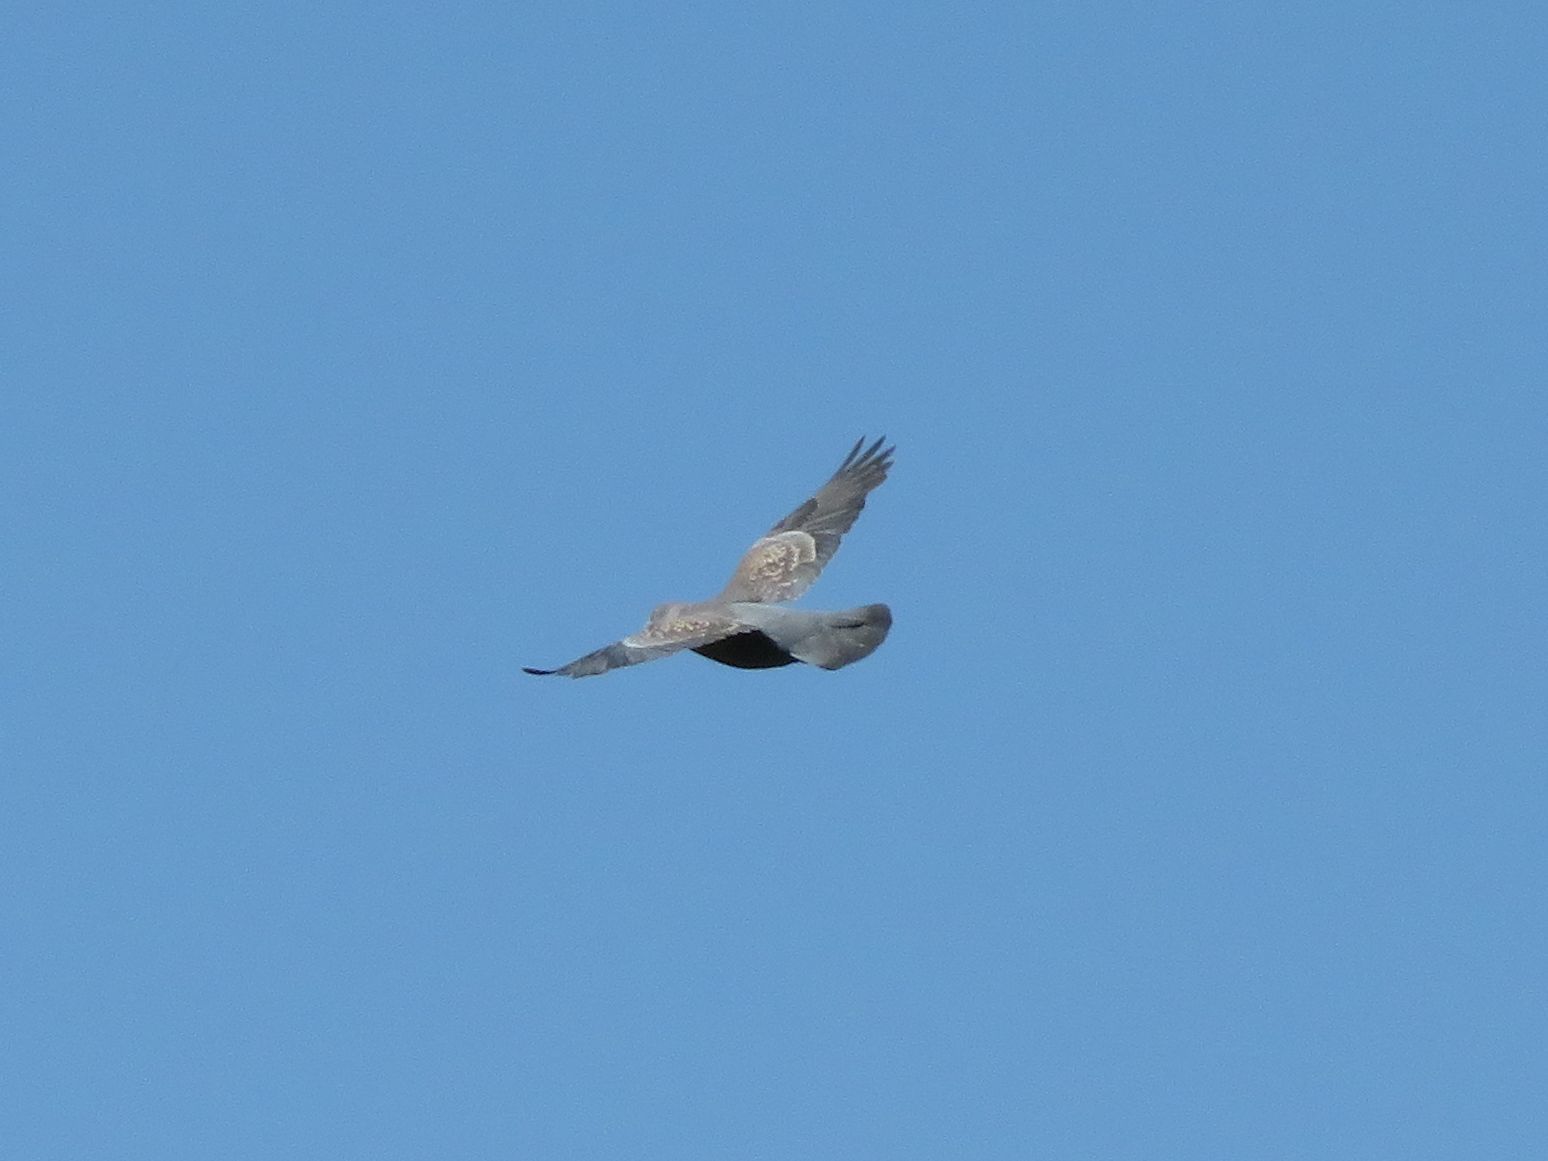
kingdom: Animalia
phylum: Chordata
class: Aves
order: Columbiformes
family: Columbidae
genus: Patagioenas
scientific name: Patagioenas maculosa
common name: Spot-winged pigeon
